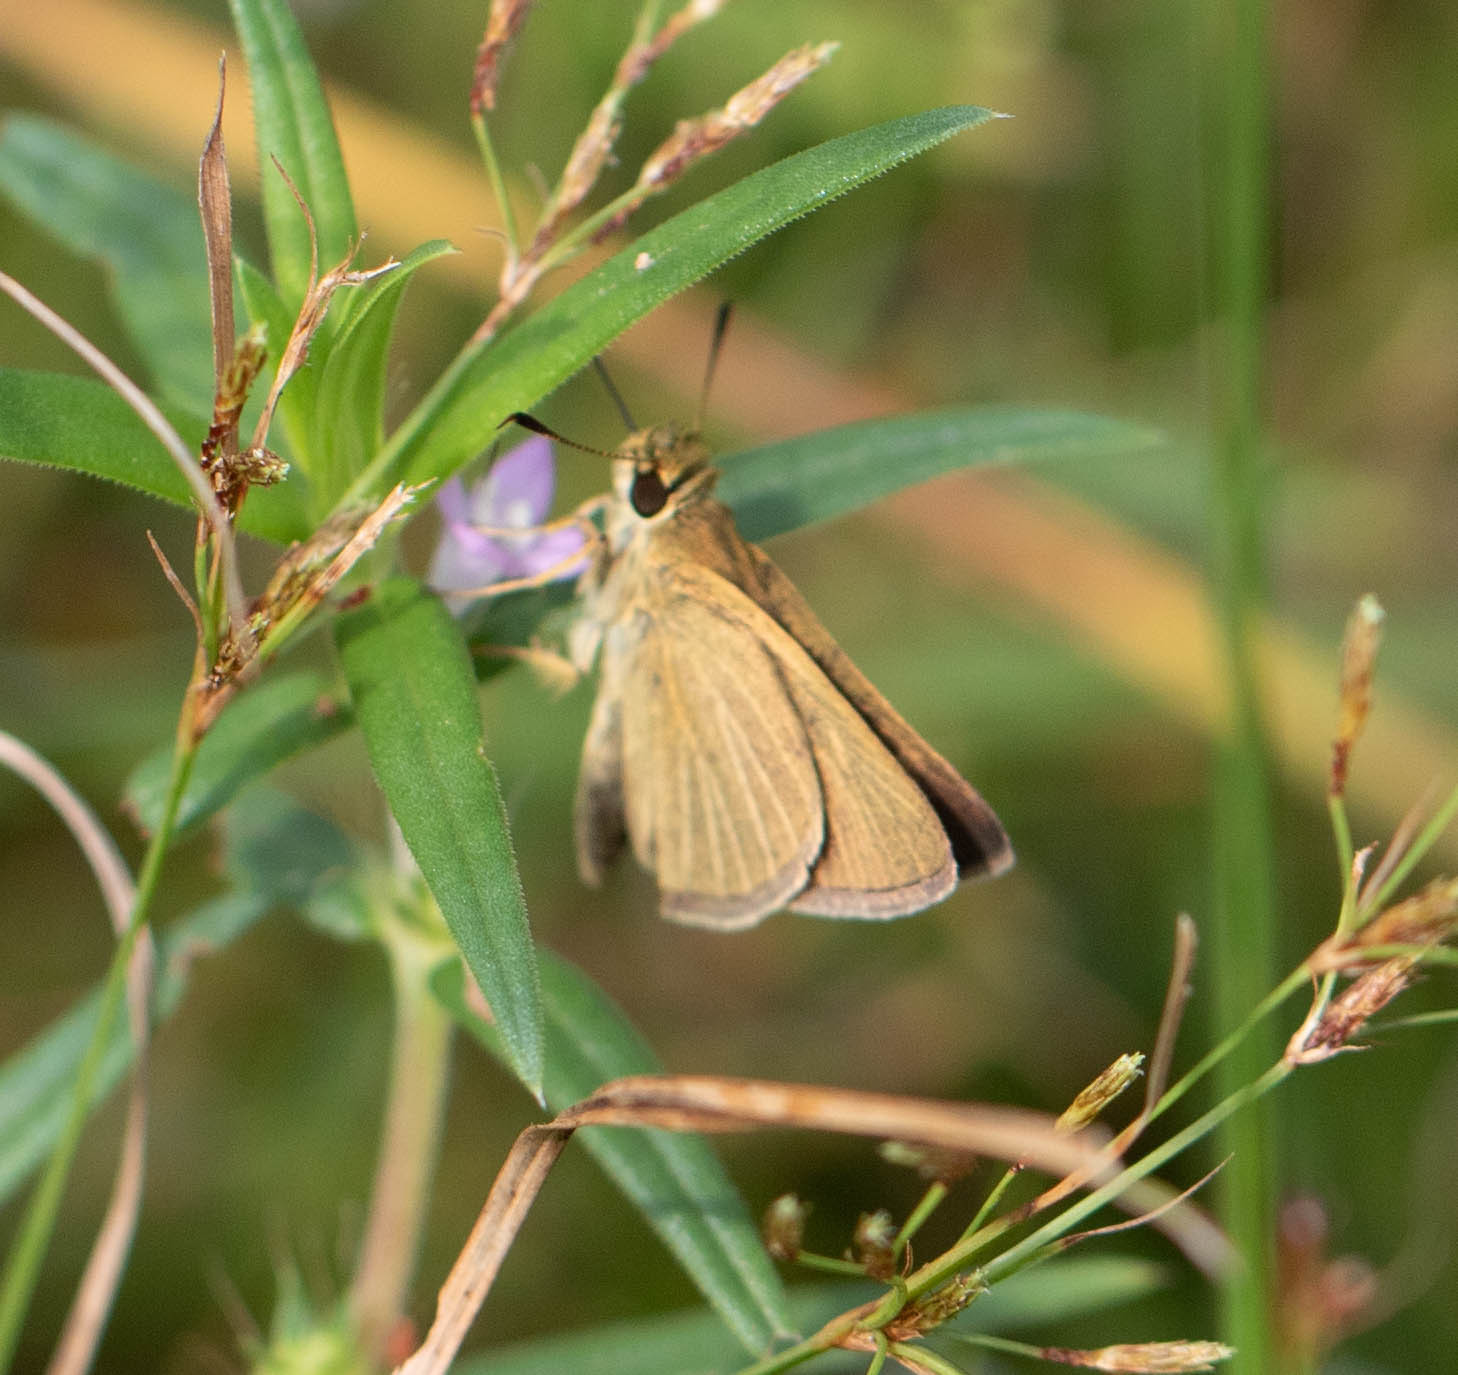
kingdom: Animalia
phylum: Arthropoda
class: Insecta
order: Lepidoptera
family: Hesperiidae
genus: Nastra
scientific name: Nastra lherminier
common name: Swarthy skipper
